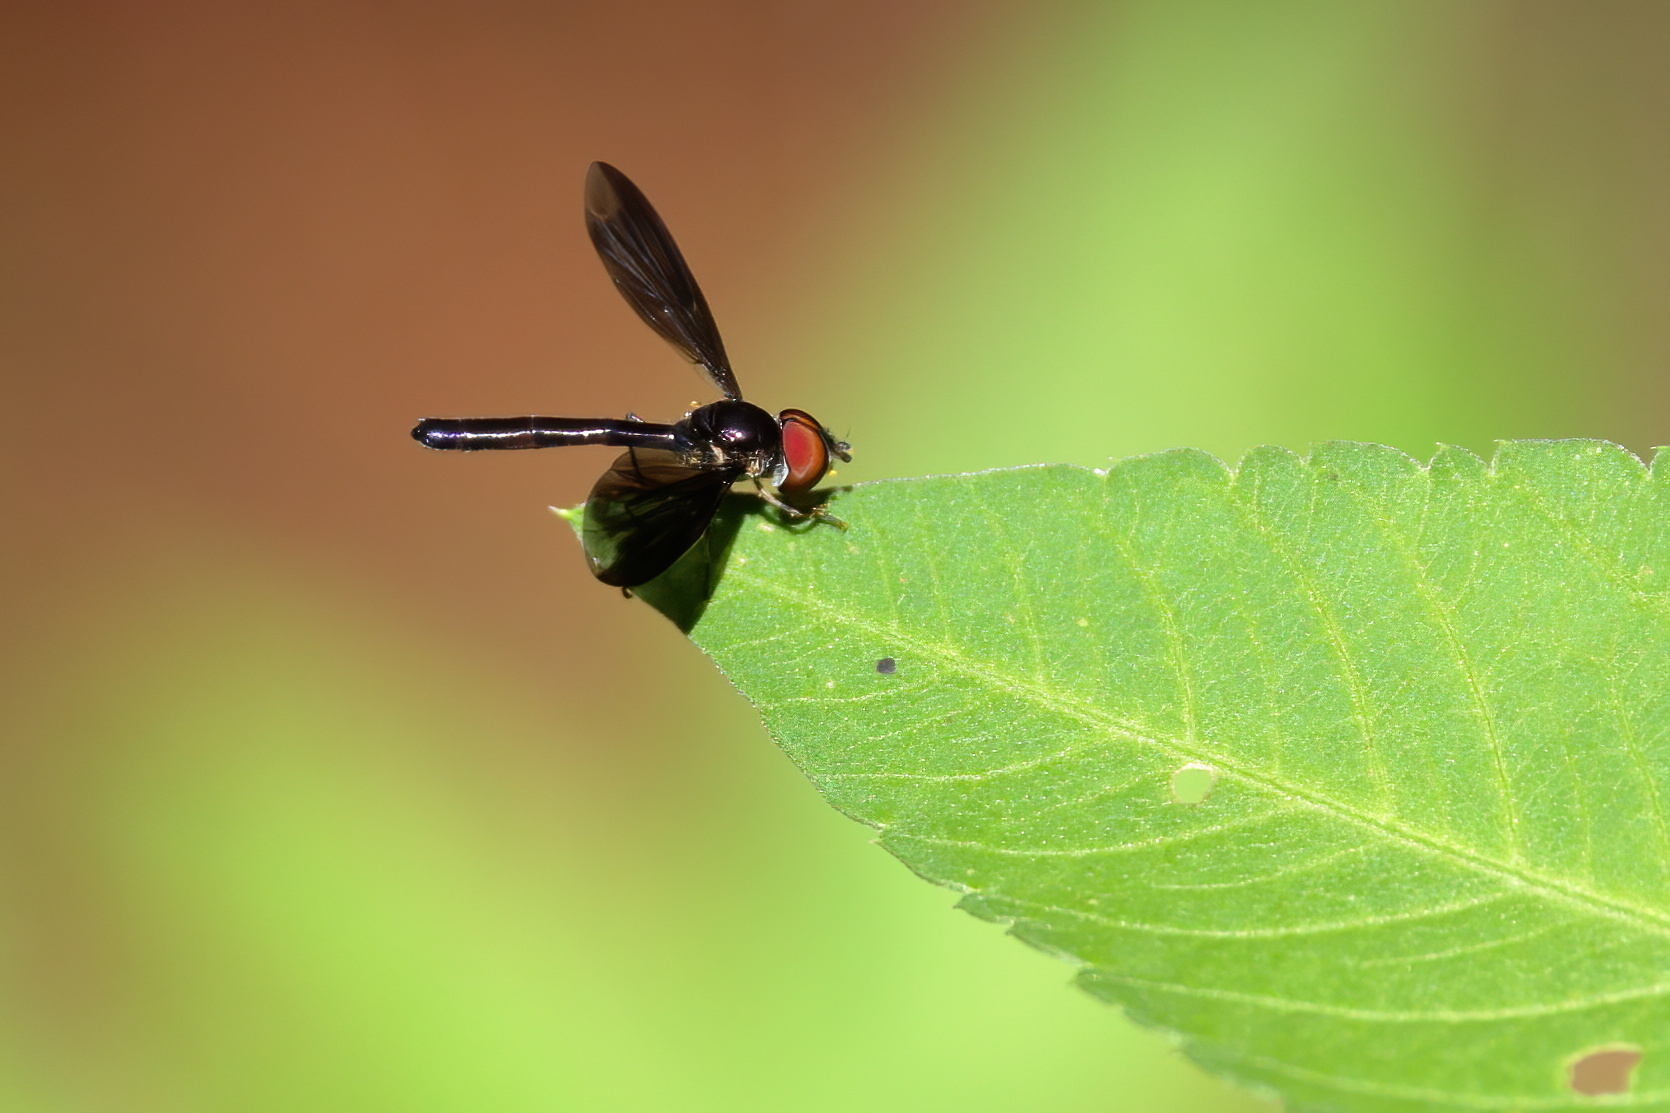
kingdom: Animalia
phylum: Arthropoda
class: Insecta
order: Diptera
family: Syrphidae
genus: Ocyptamus
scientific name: Ocyptamus fuscipennis
